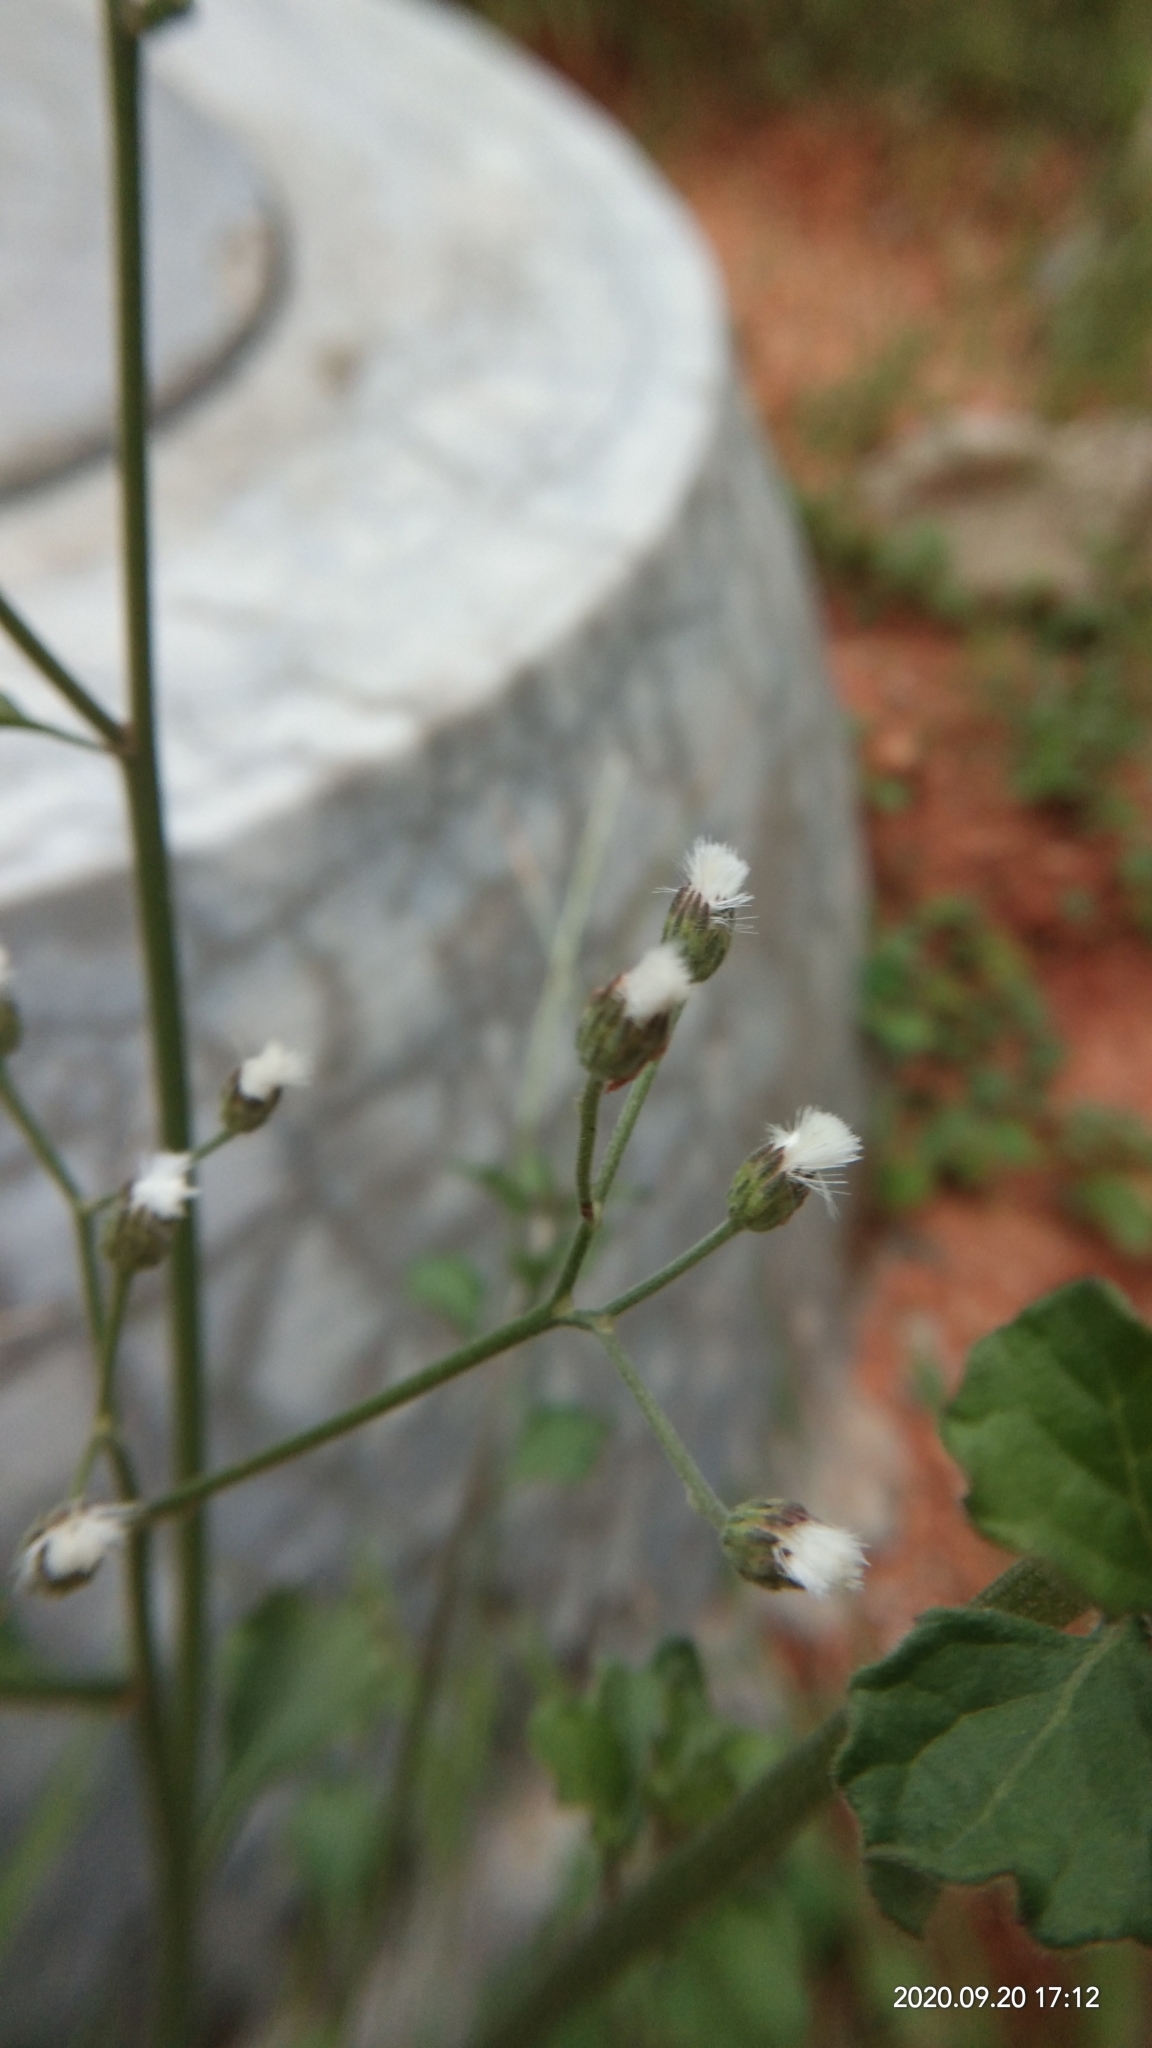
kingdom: Plantae
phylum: Tracheophyta
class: Magnoliopsida
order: Asterales
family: Asteraceae
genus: Cyanthillium
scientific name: Cyanthillium cinereum
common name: Little ironweed
